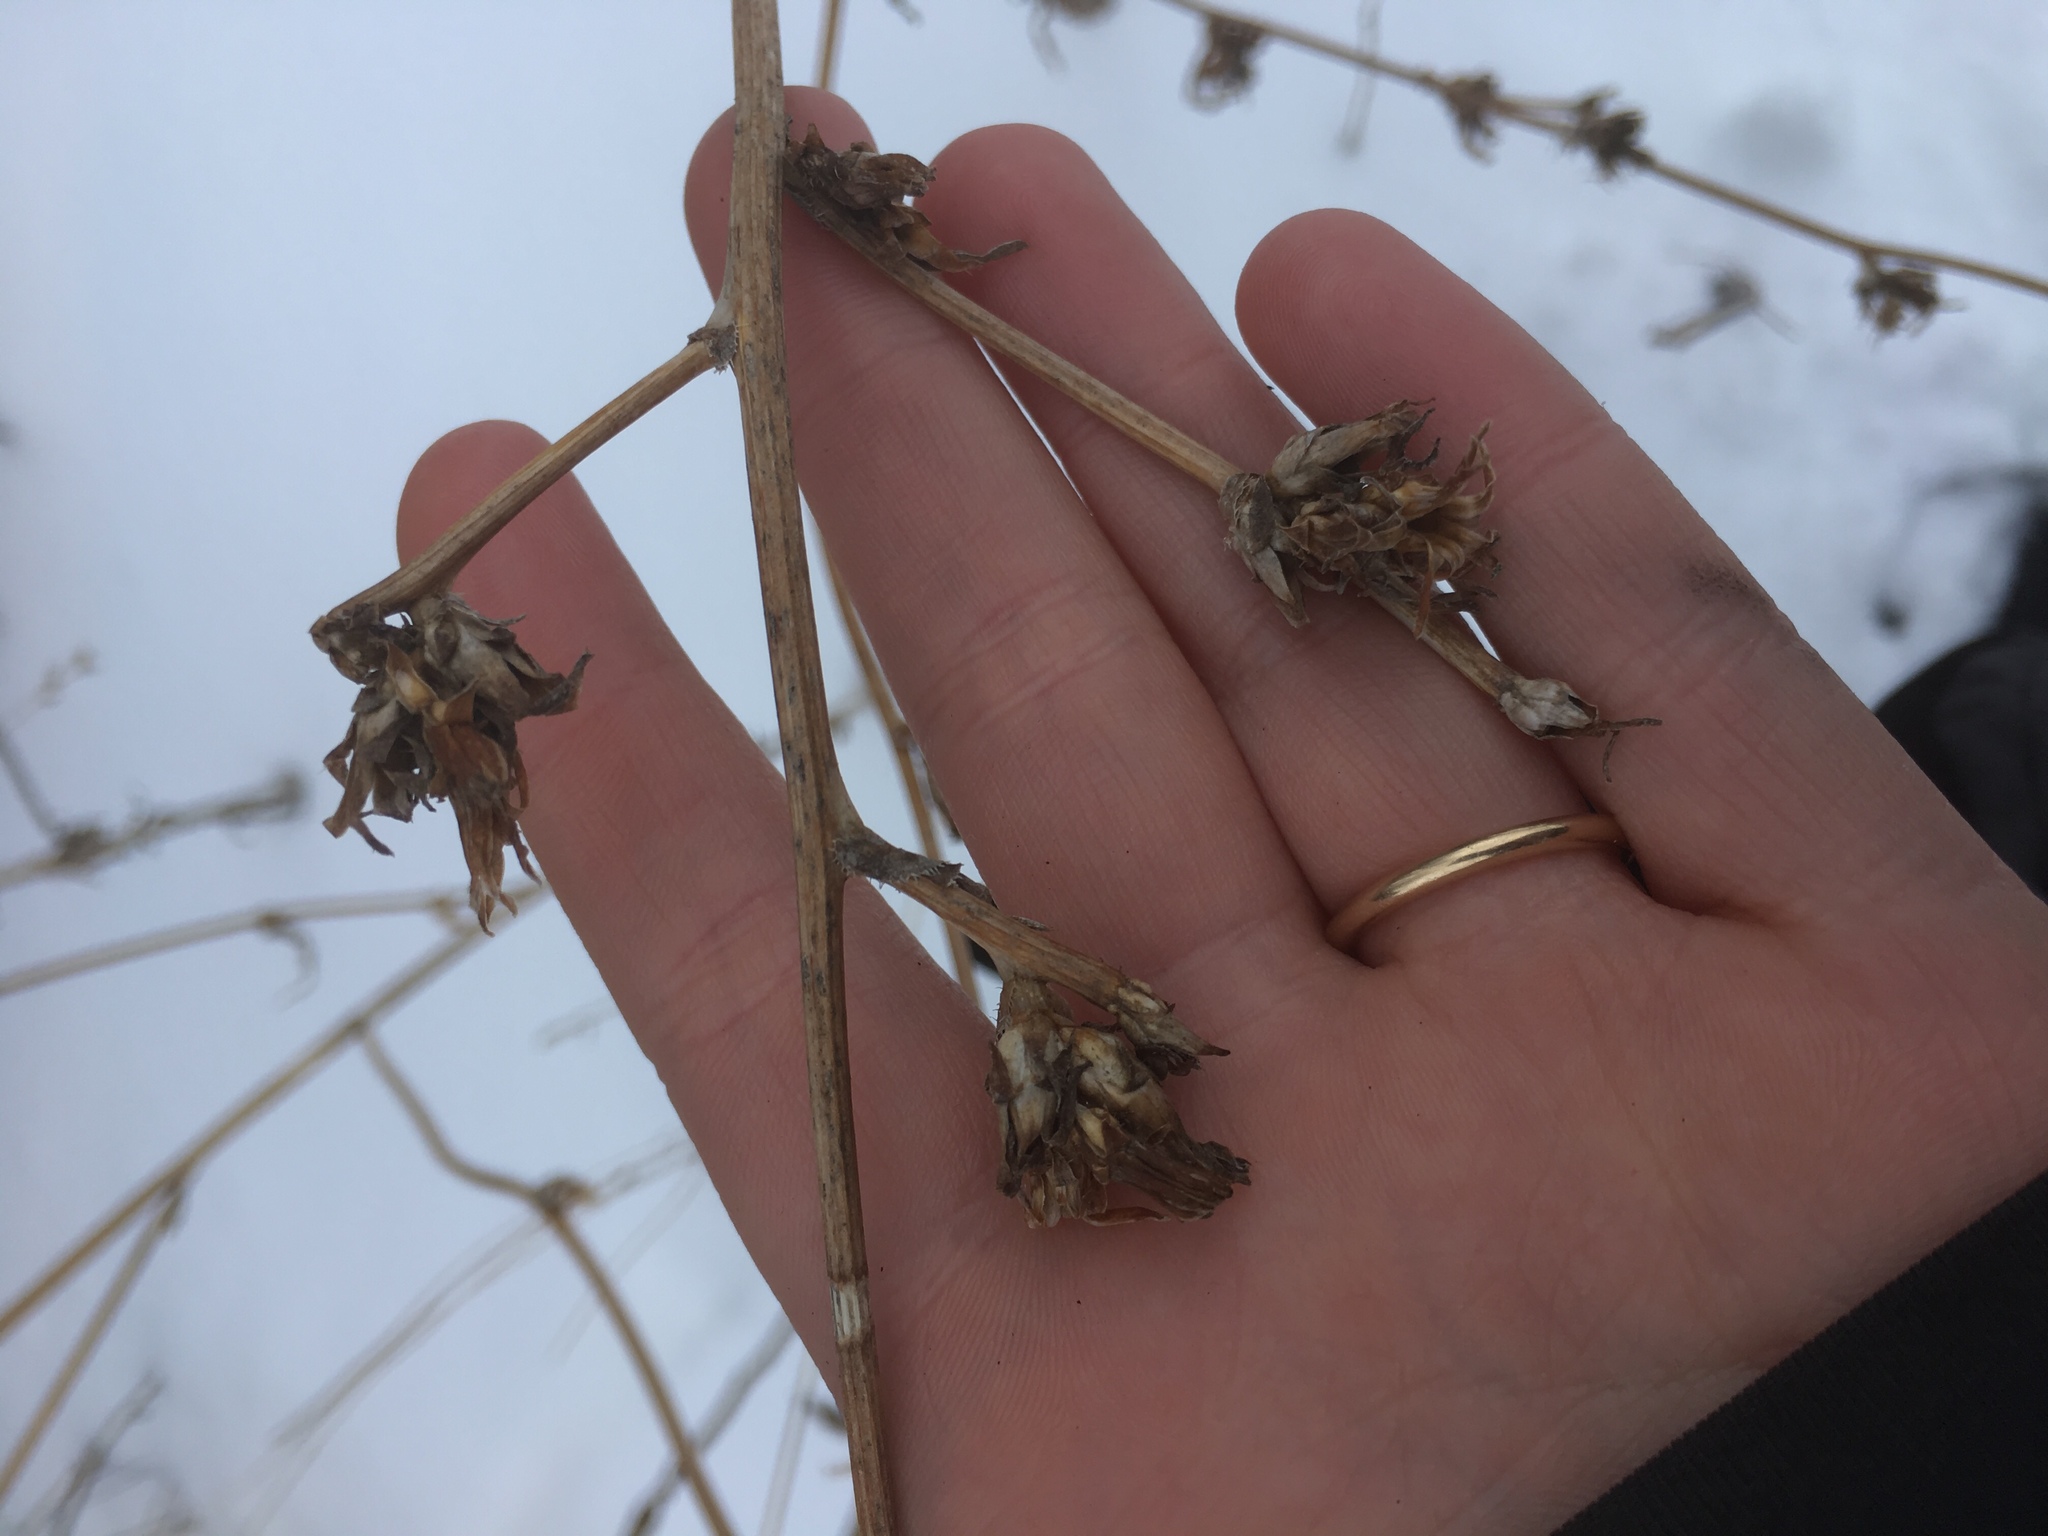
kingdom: Plantae
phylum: Tracheophyta
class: Magnoliopsida
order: Asterales
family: Asteraceae
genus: Cichorium
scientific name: Cichorium intybus
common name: Chicory
